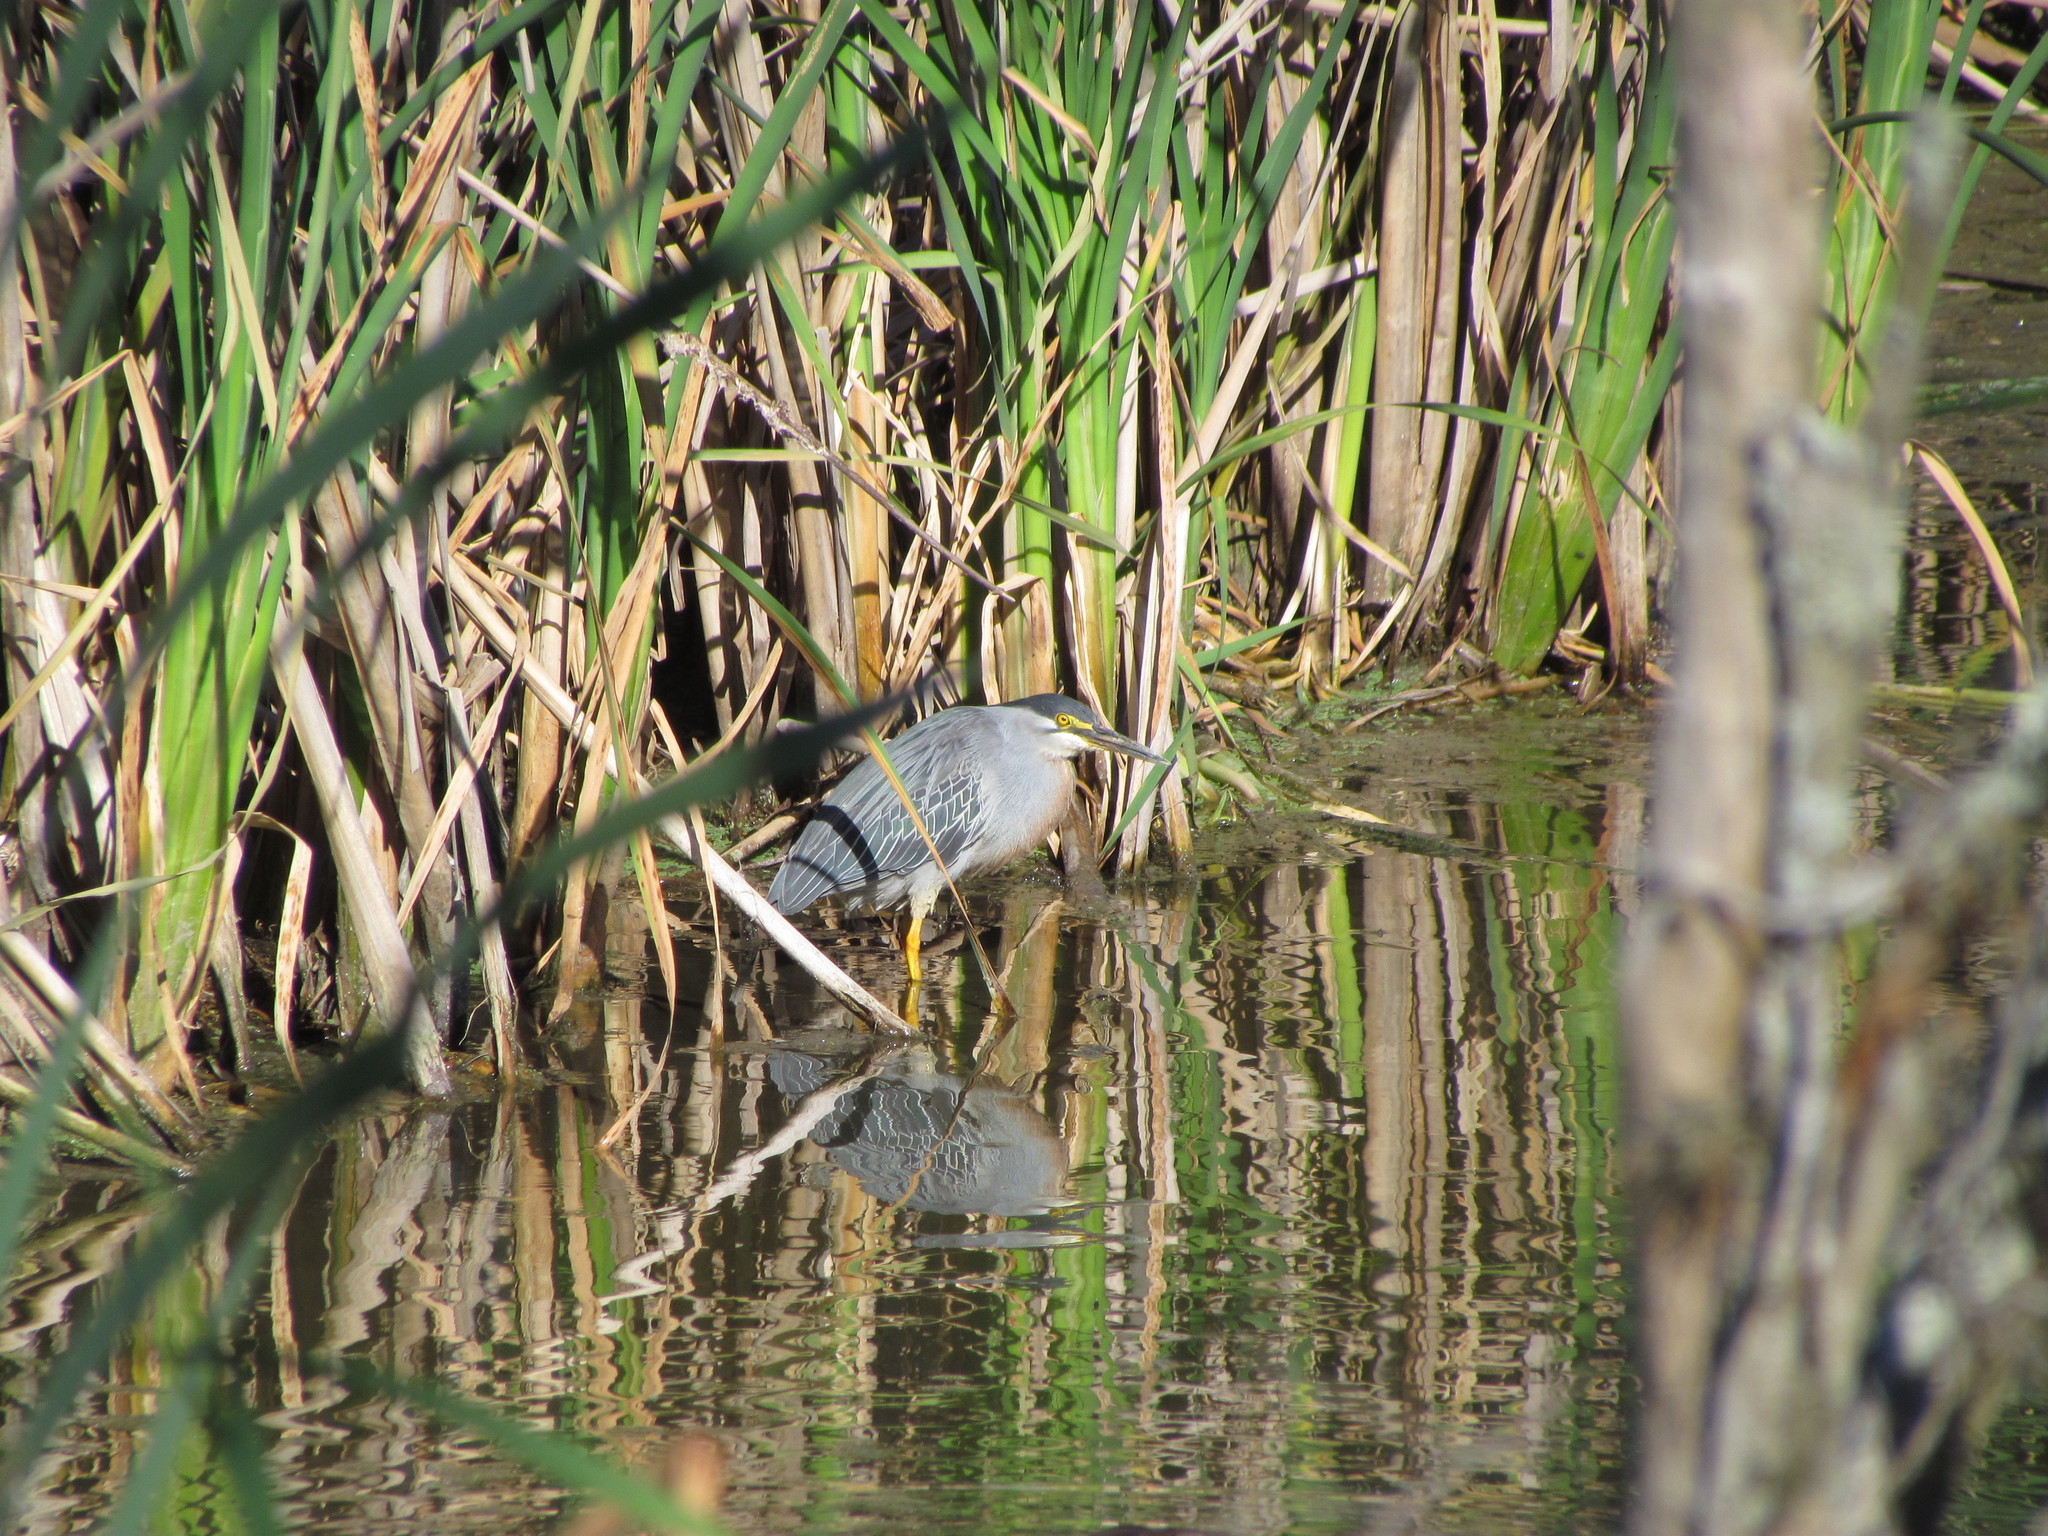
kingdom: Animalia
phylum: Chordata
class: Aves
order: Pelecaniformes
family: Ardeidae
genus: Butorides
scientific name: Butorides striata
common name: Striated heron
